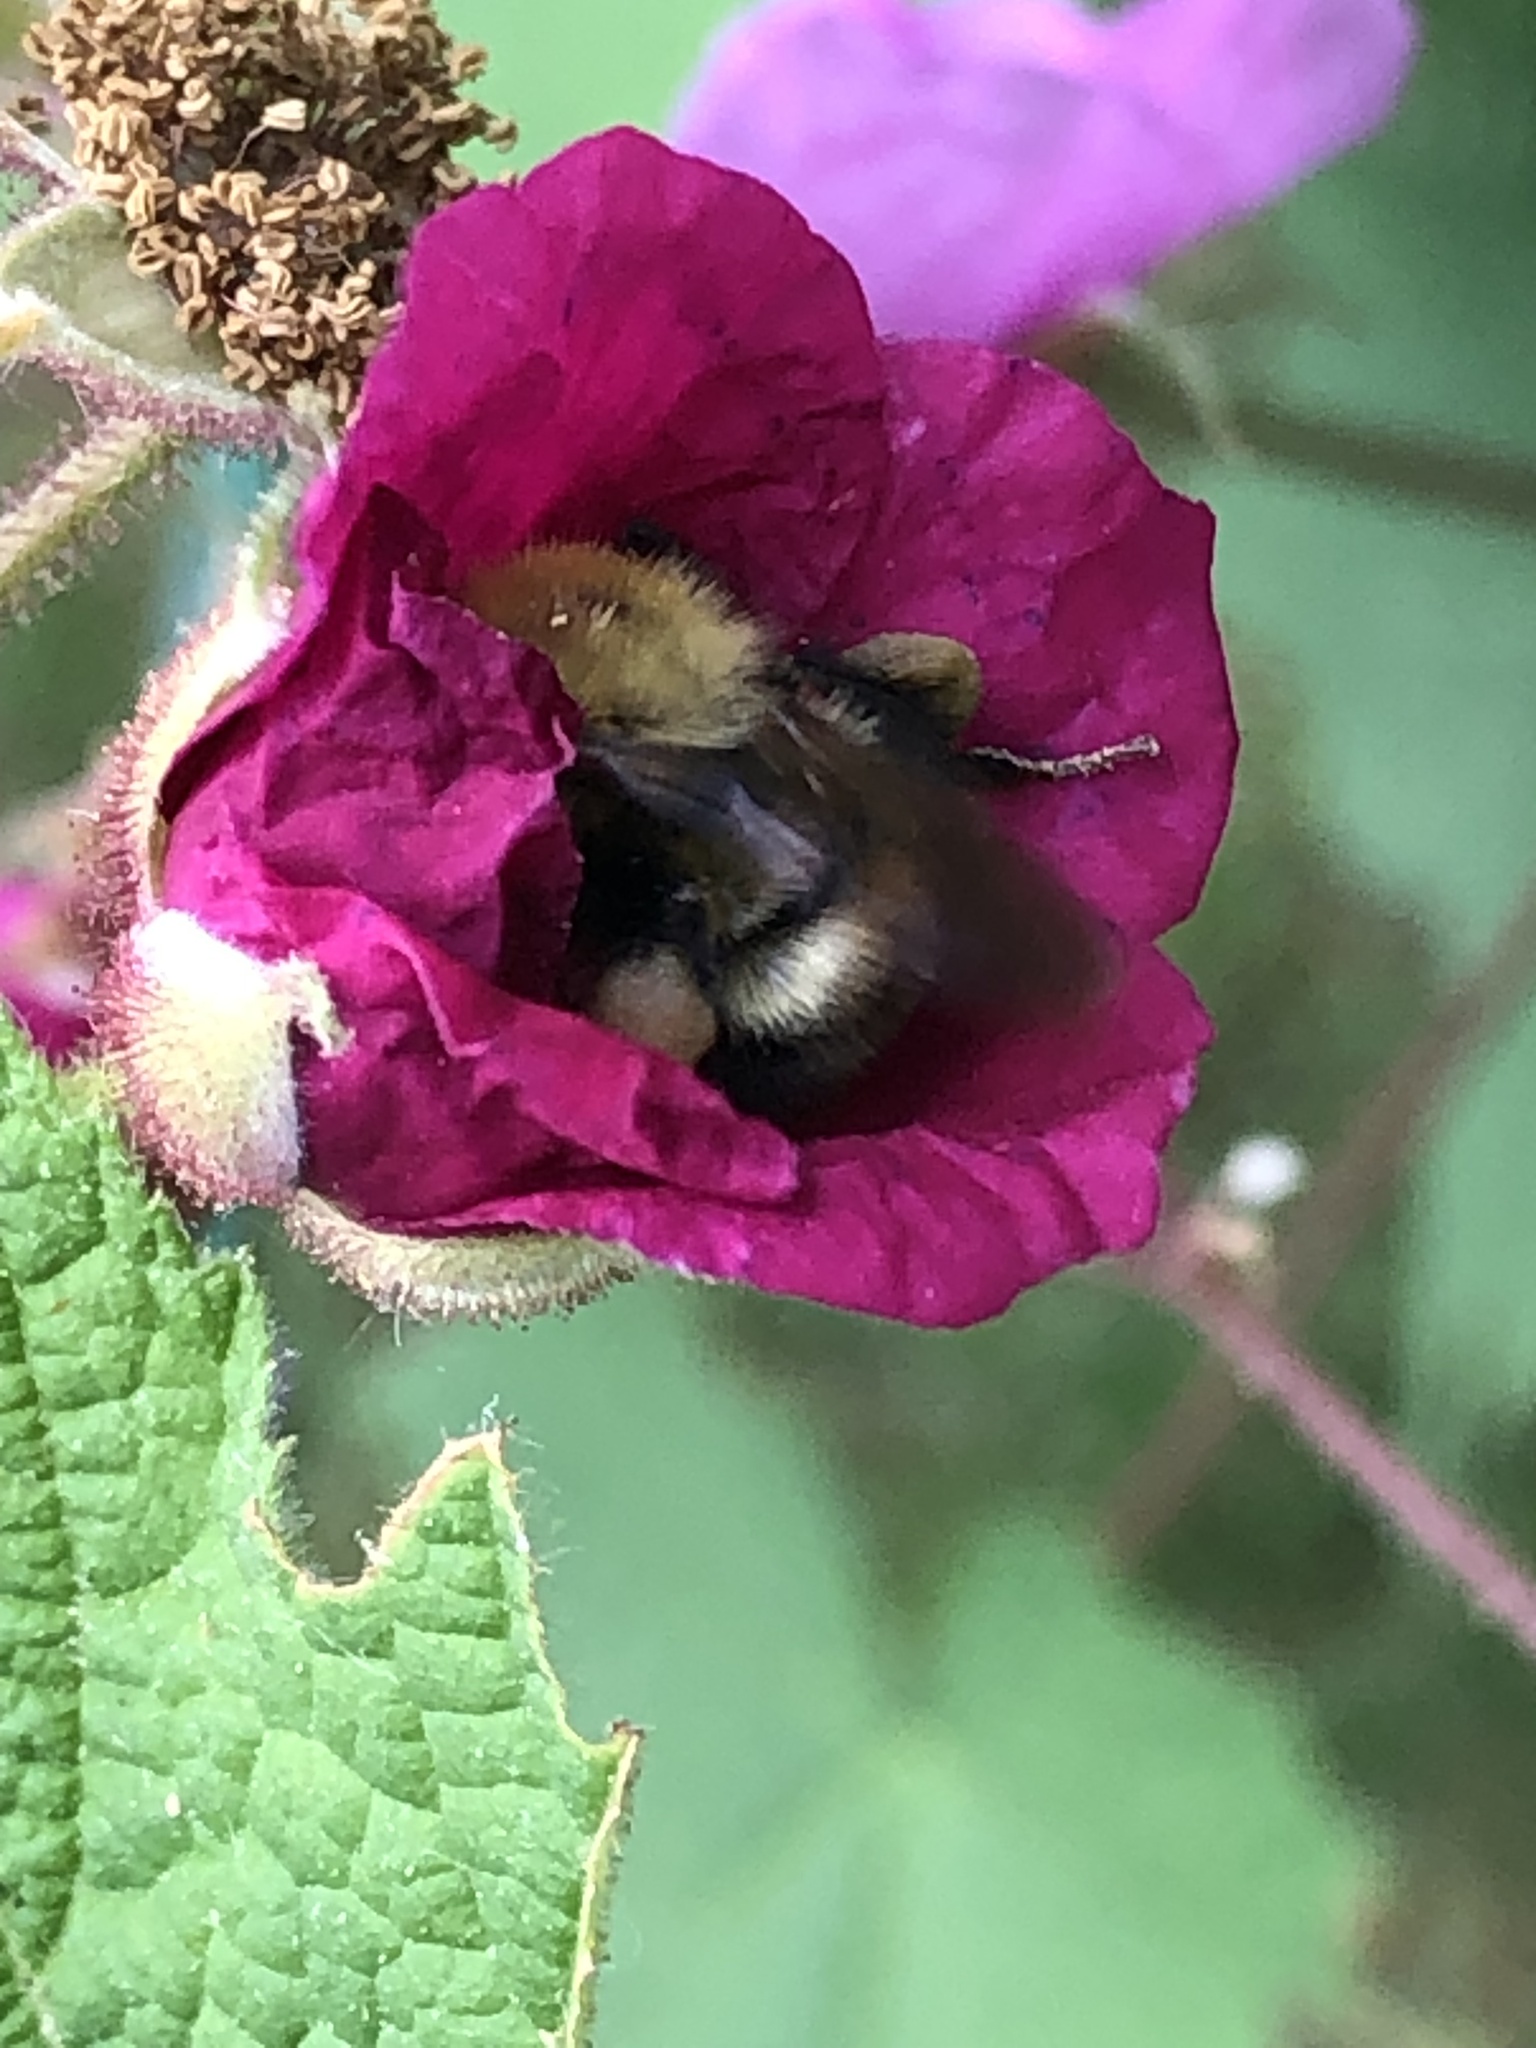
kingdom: Animalia
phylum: Arthropoda
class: Insecta
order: Hymenoptera
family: Apidae
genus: Bombus
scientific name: Bombus perplexus
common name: Confusing bumble bee
